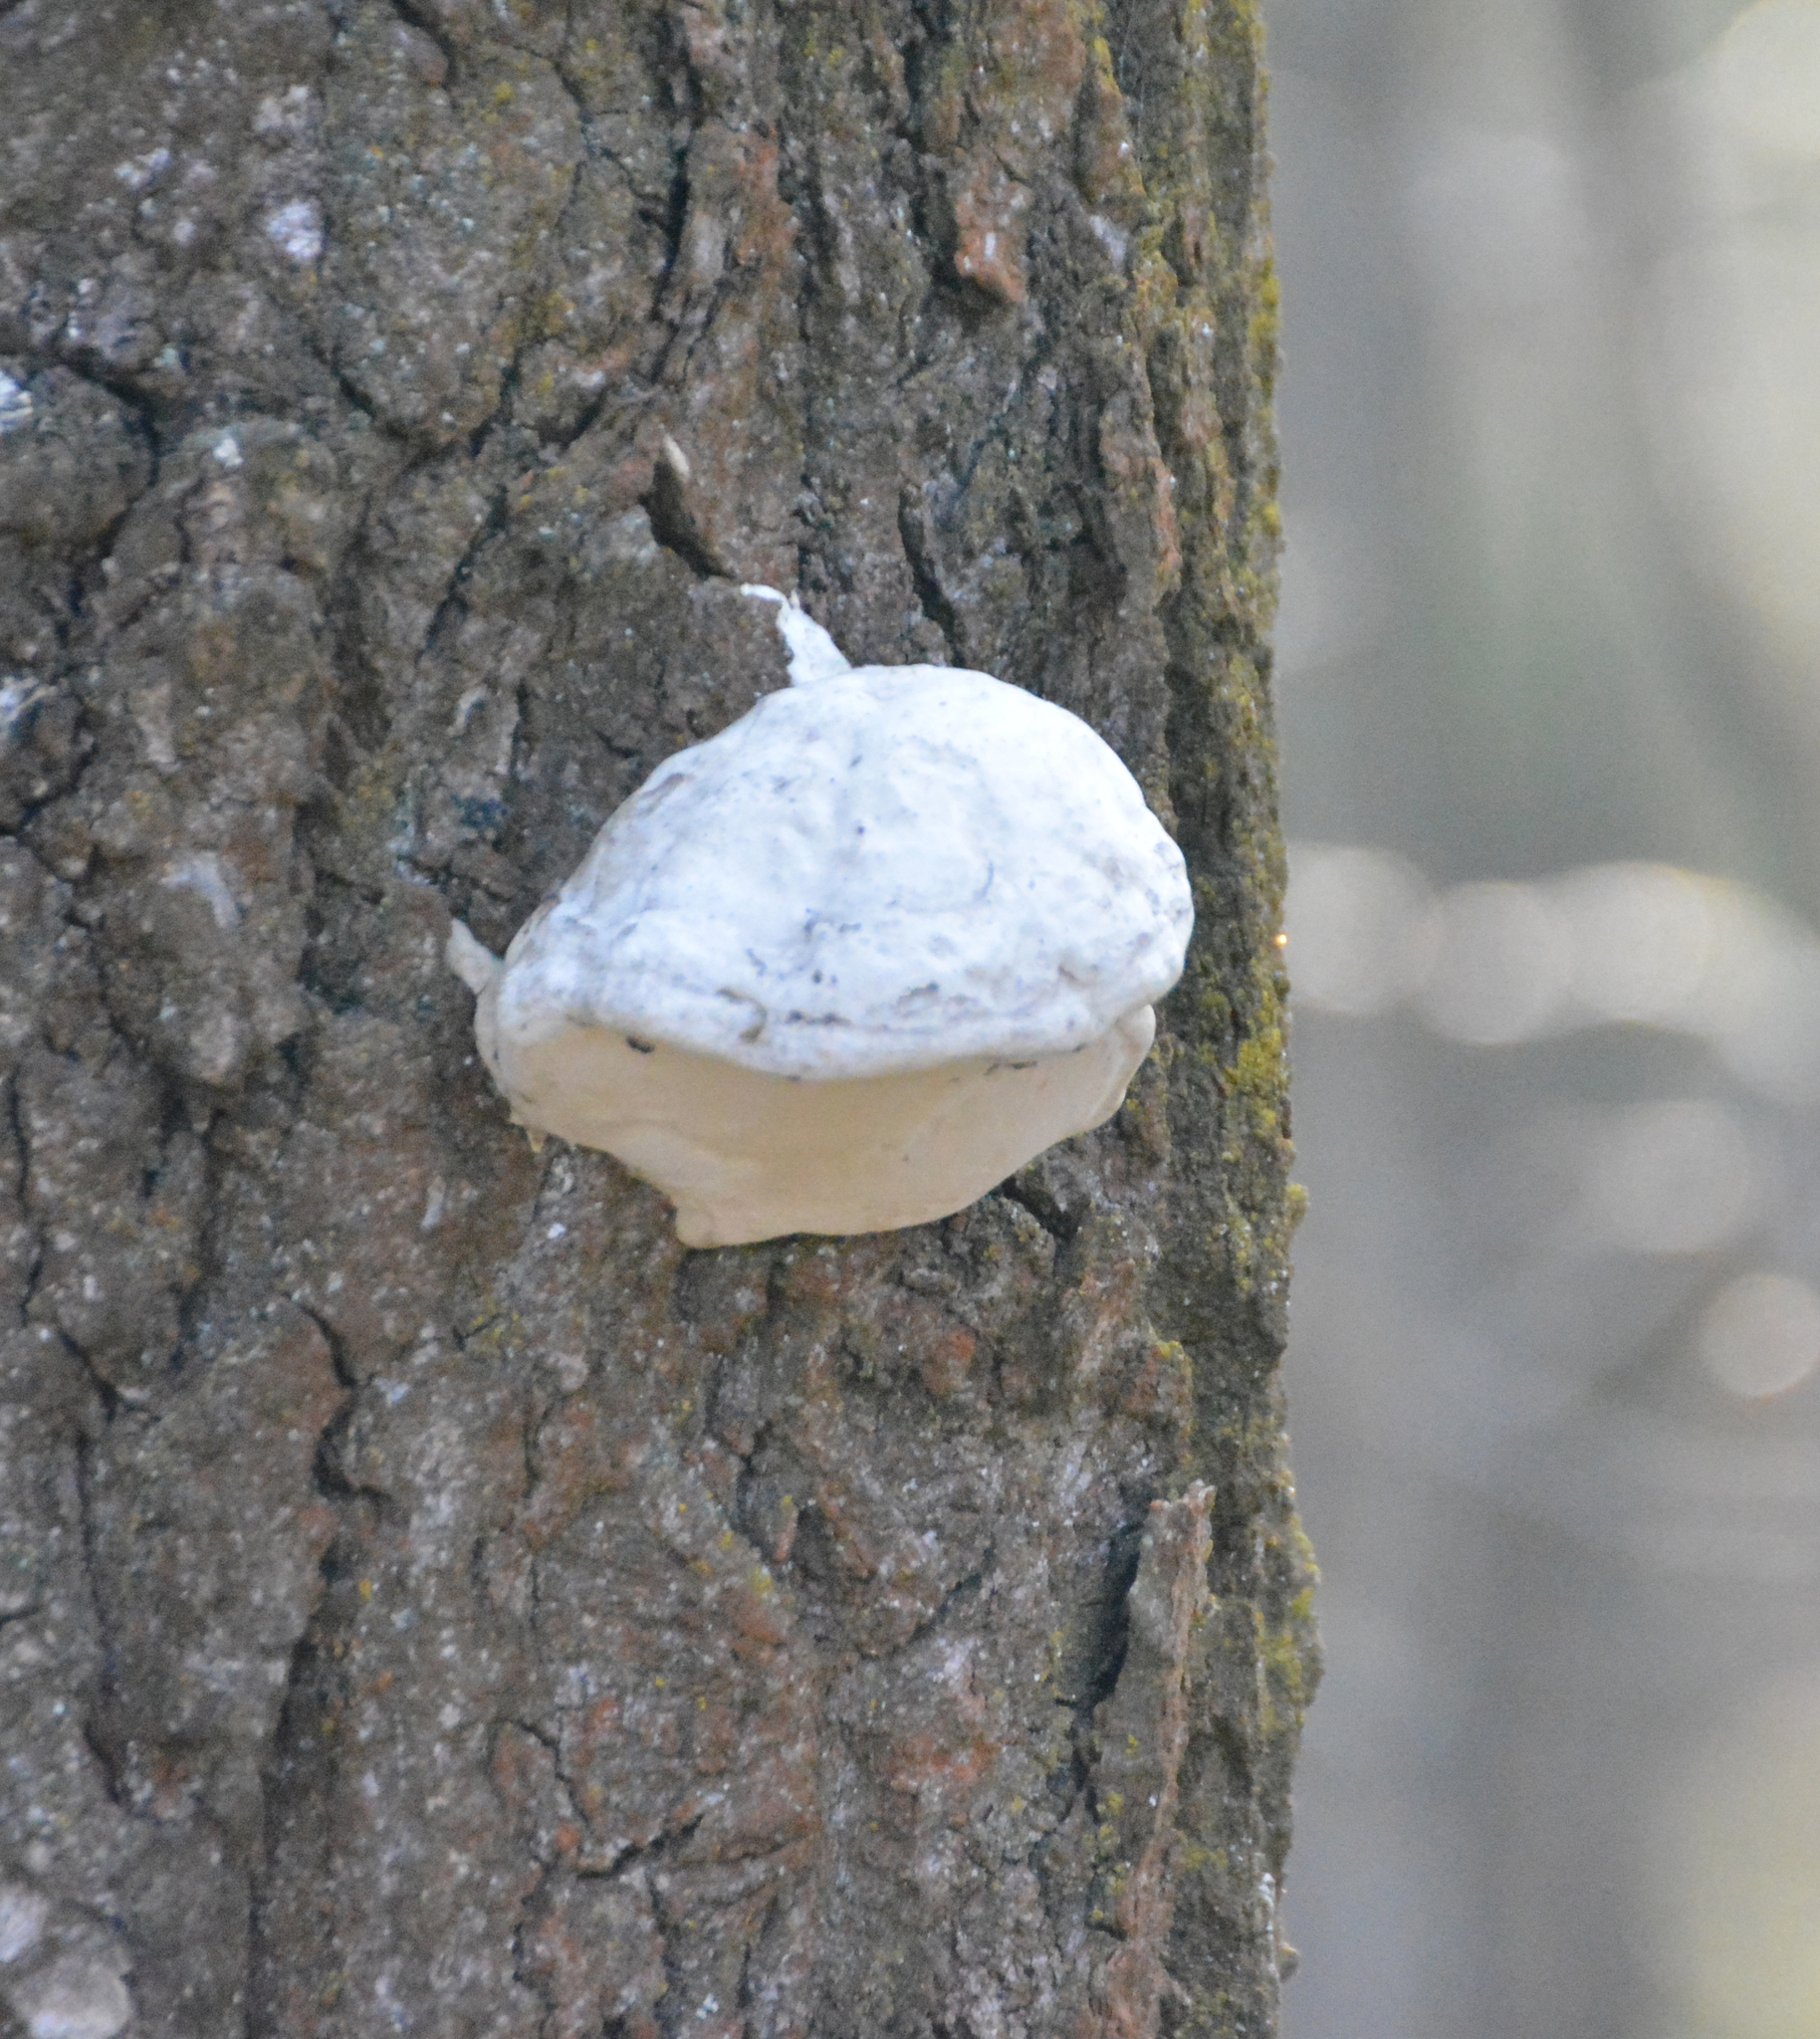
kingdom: Fungi
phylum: Basidiomycota
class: Agaricomycetes
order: Polyporales
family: Polyporaceae
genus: Fomes
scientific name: Fomes fomentarius
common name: Hoof fungus
